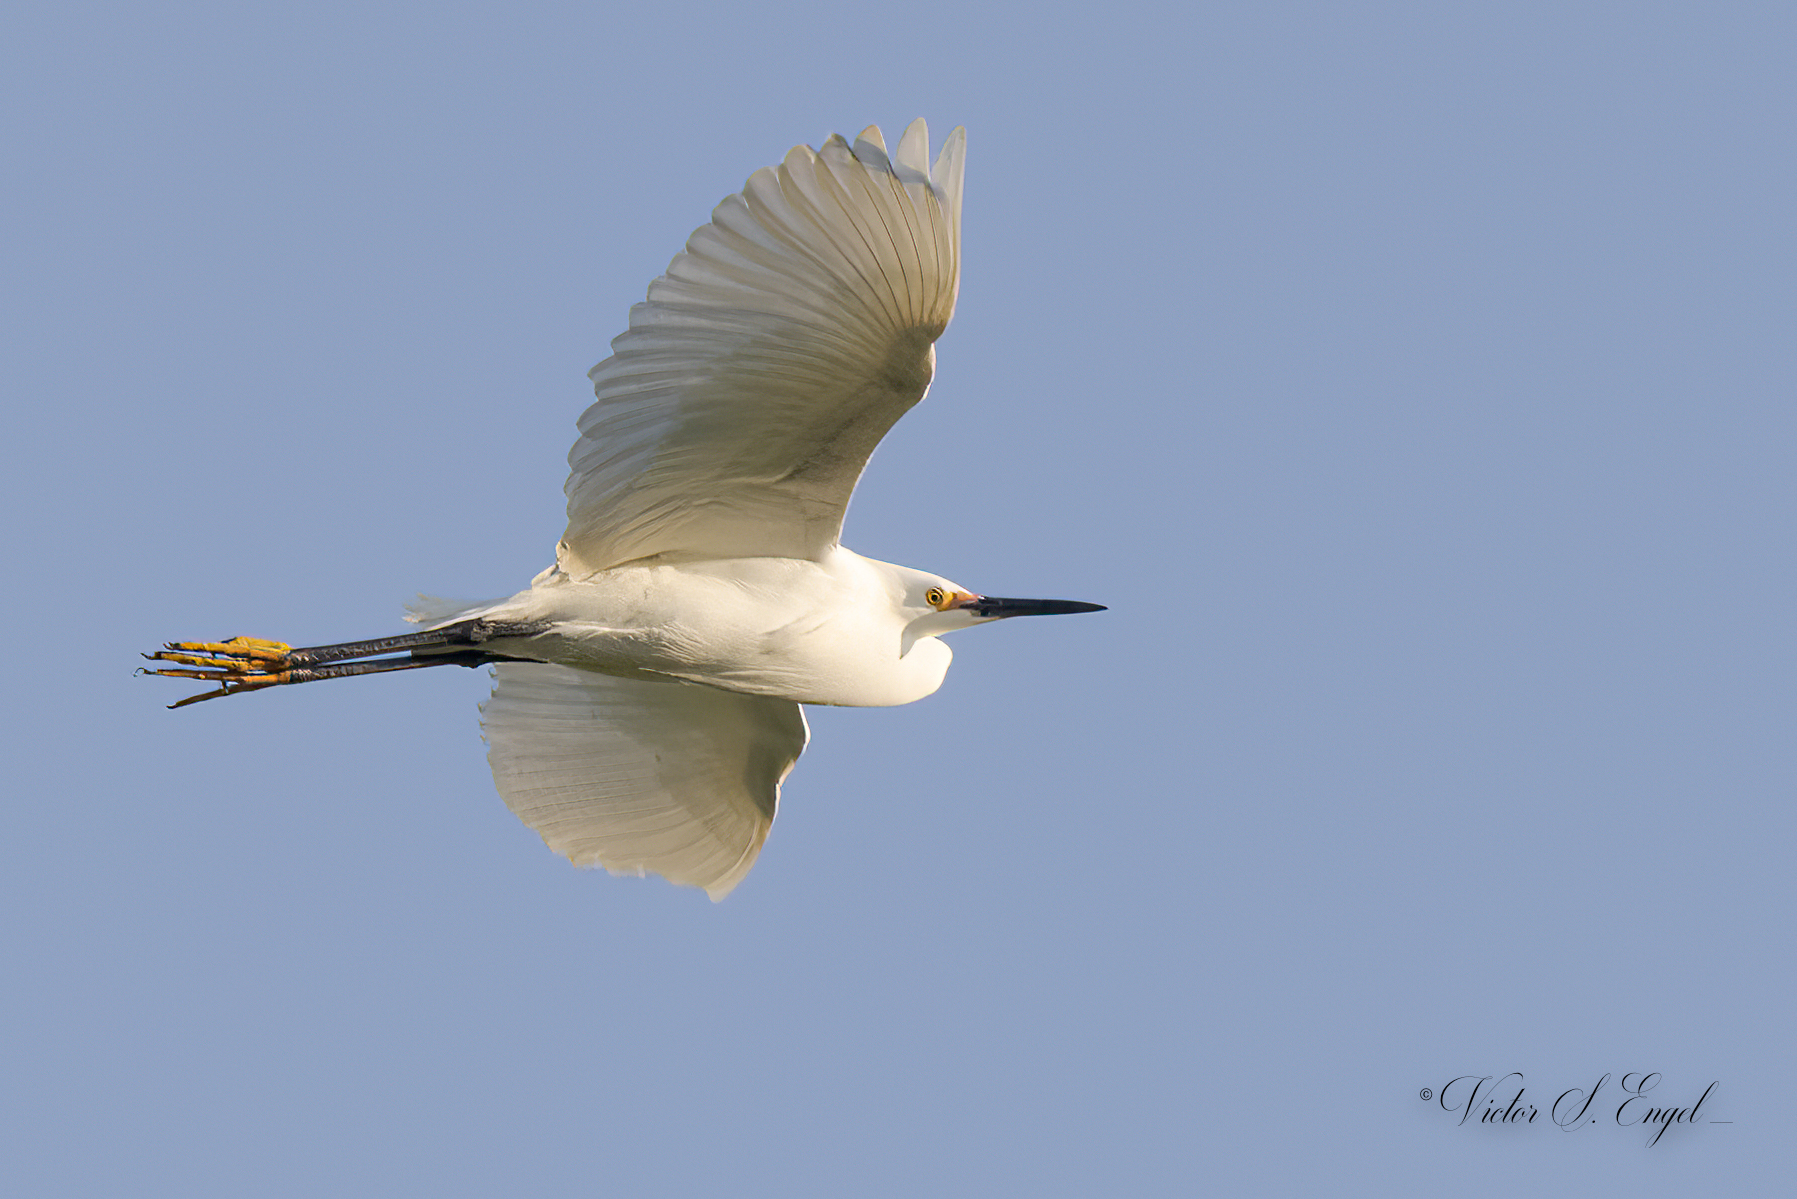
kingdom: Animalia
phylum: Chordata
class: Aves
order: Pelecaniformes
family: Ardeidae
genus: Egretta
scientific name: Egretta thula
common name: Snowy egret
